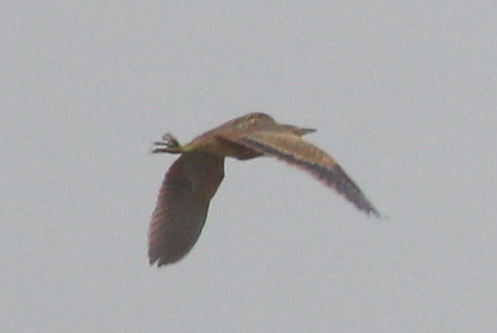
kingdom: Animalia
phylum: Chordata
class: Aves
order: Pelecaniformes
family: Ardeidae
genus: Botaurus
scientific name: Botaurus lentiginosus
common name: American bittern
